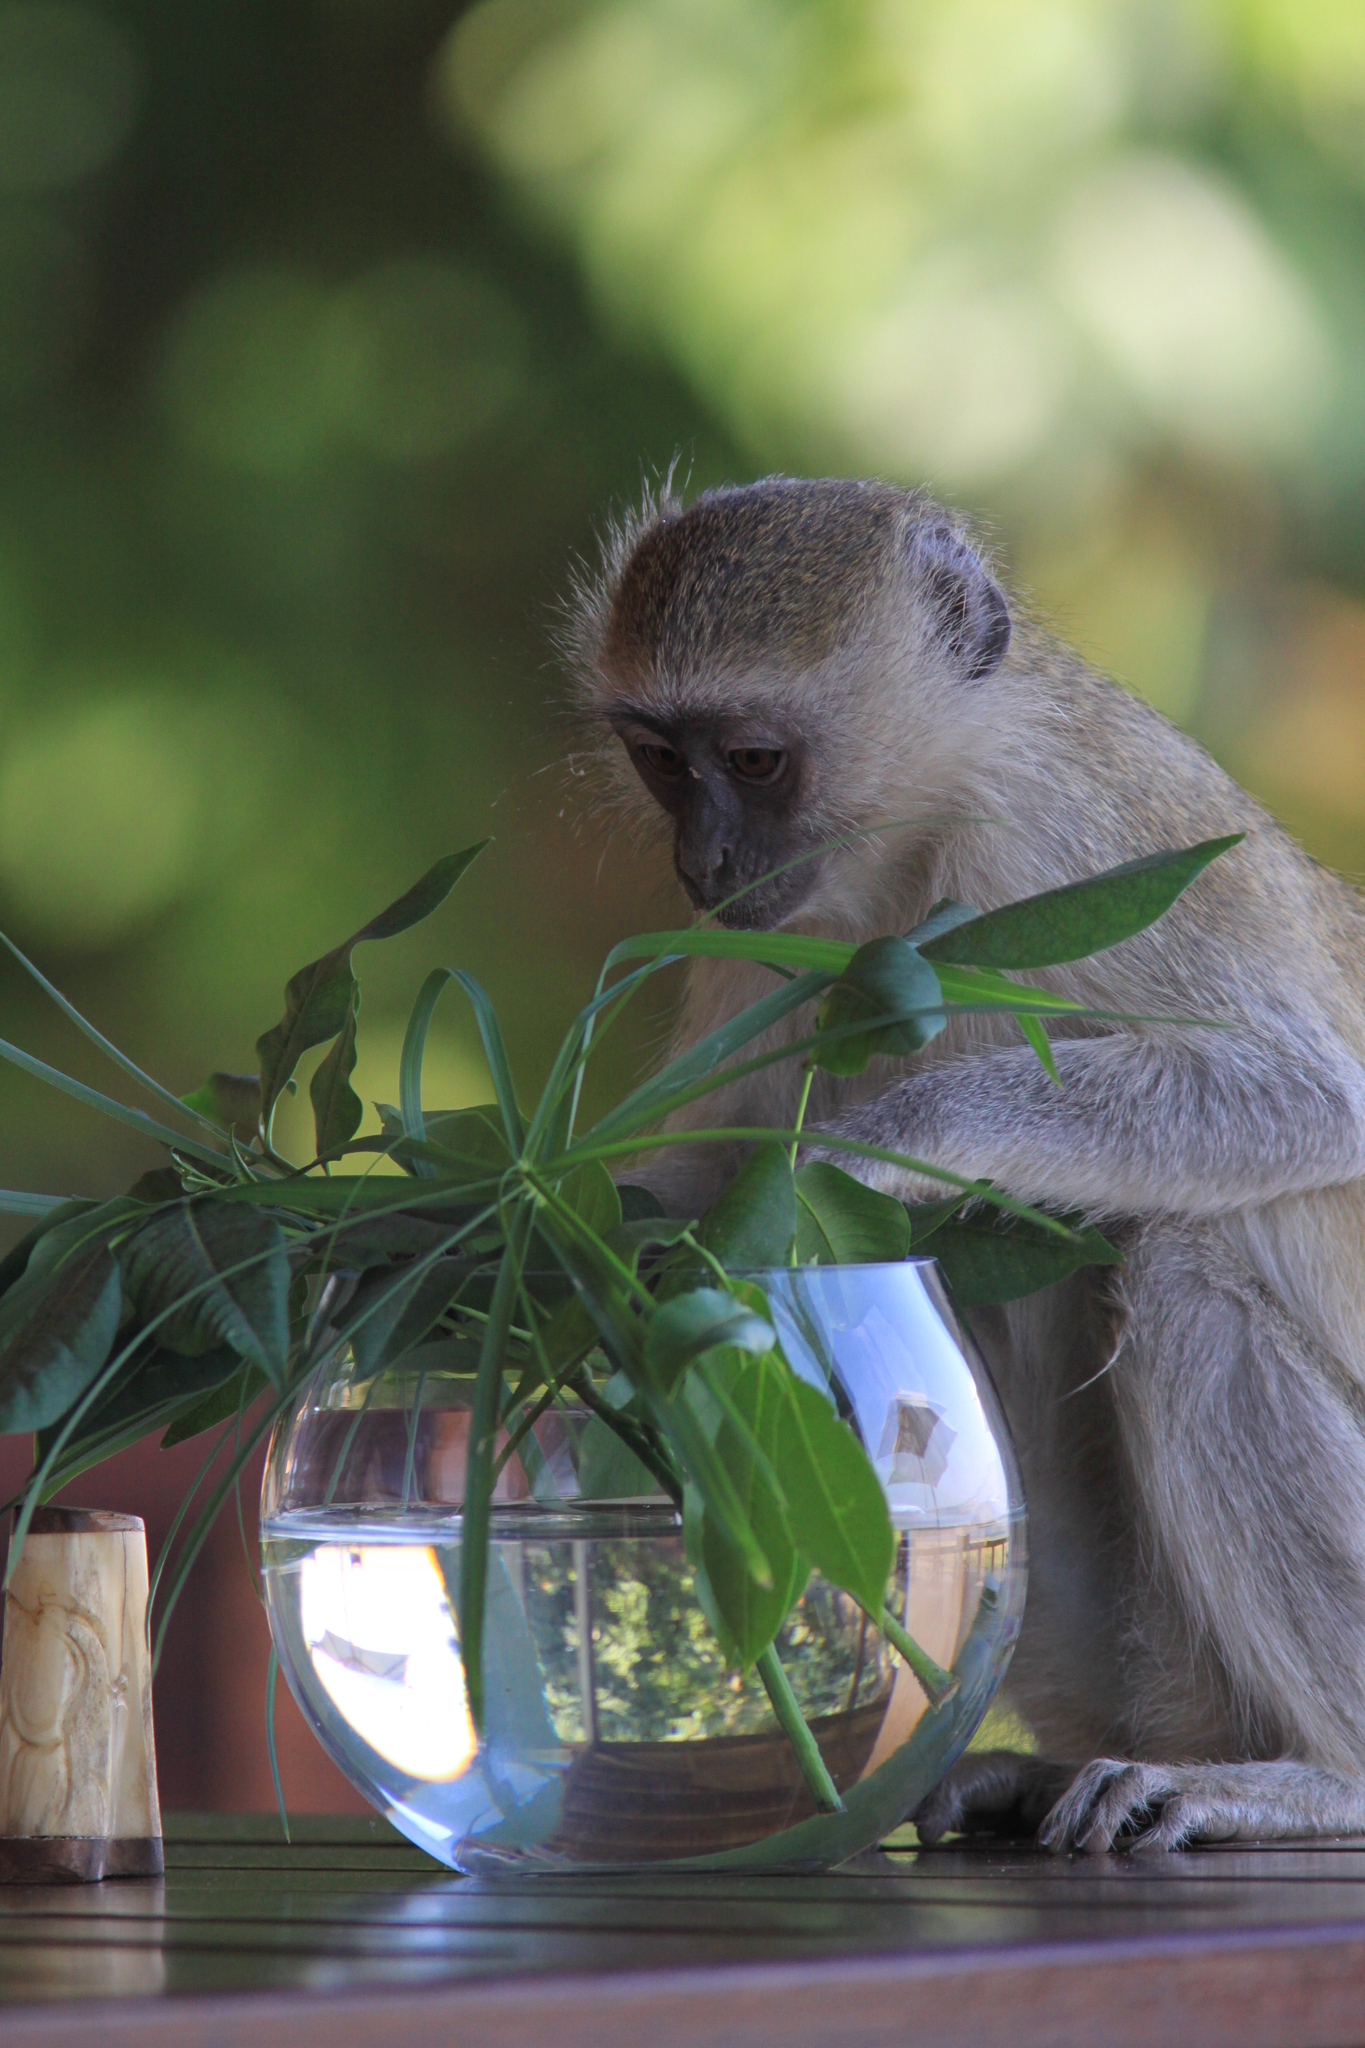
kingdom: Animalia
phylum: Chordata
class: Mammalia
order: Primates
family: Cercopithecidae
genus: Chlorocebus
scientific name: Chlorocebus pygerythrus
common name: Vervet monkey
